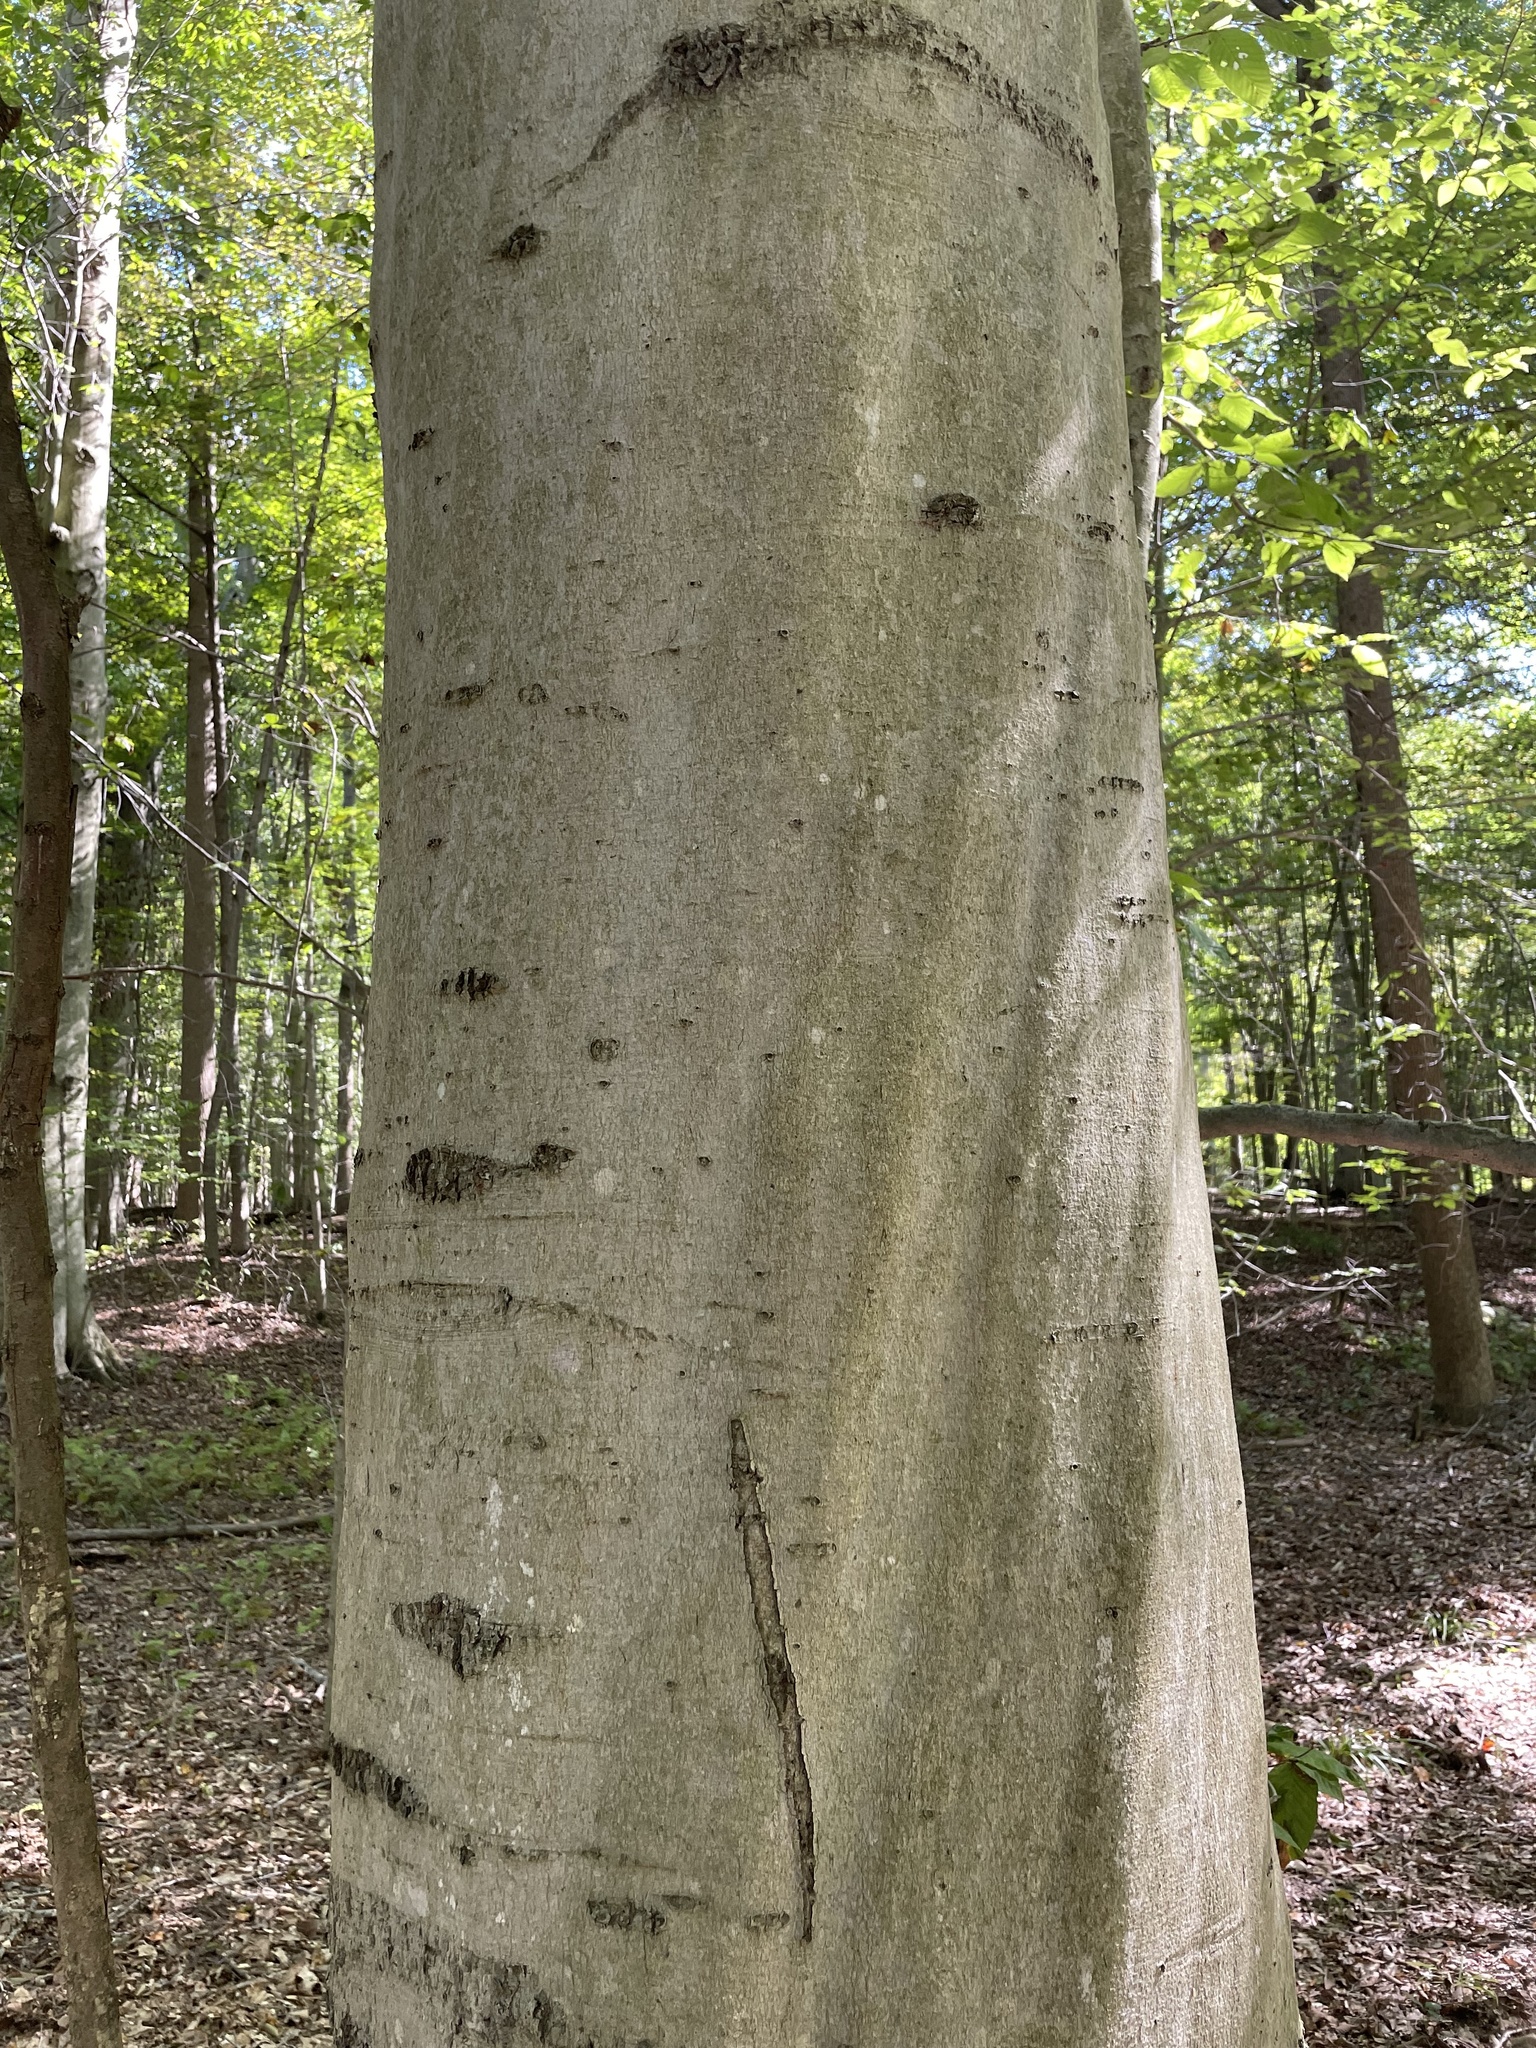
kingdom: Plantae
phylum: Tracheophyta
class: Magnoliopsida
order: Fagales
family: Fagaceae
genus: Fagus
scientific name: Fagus grandifolia
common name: American beech
